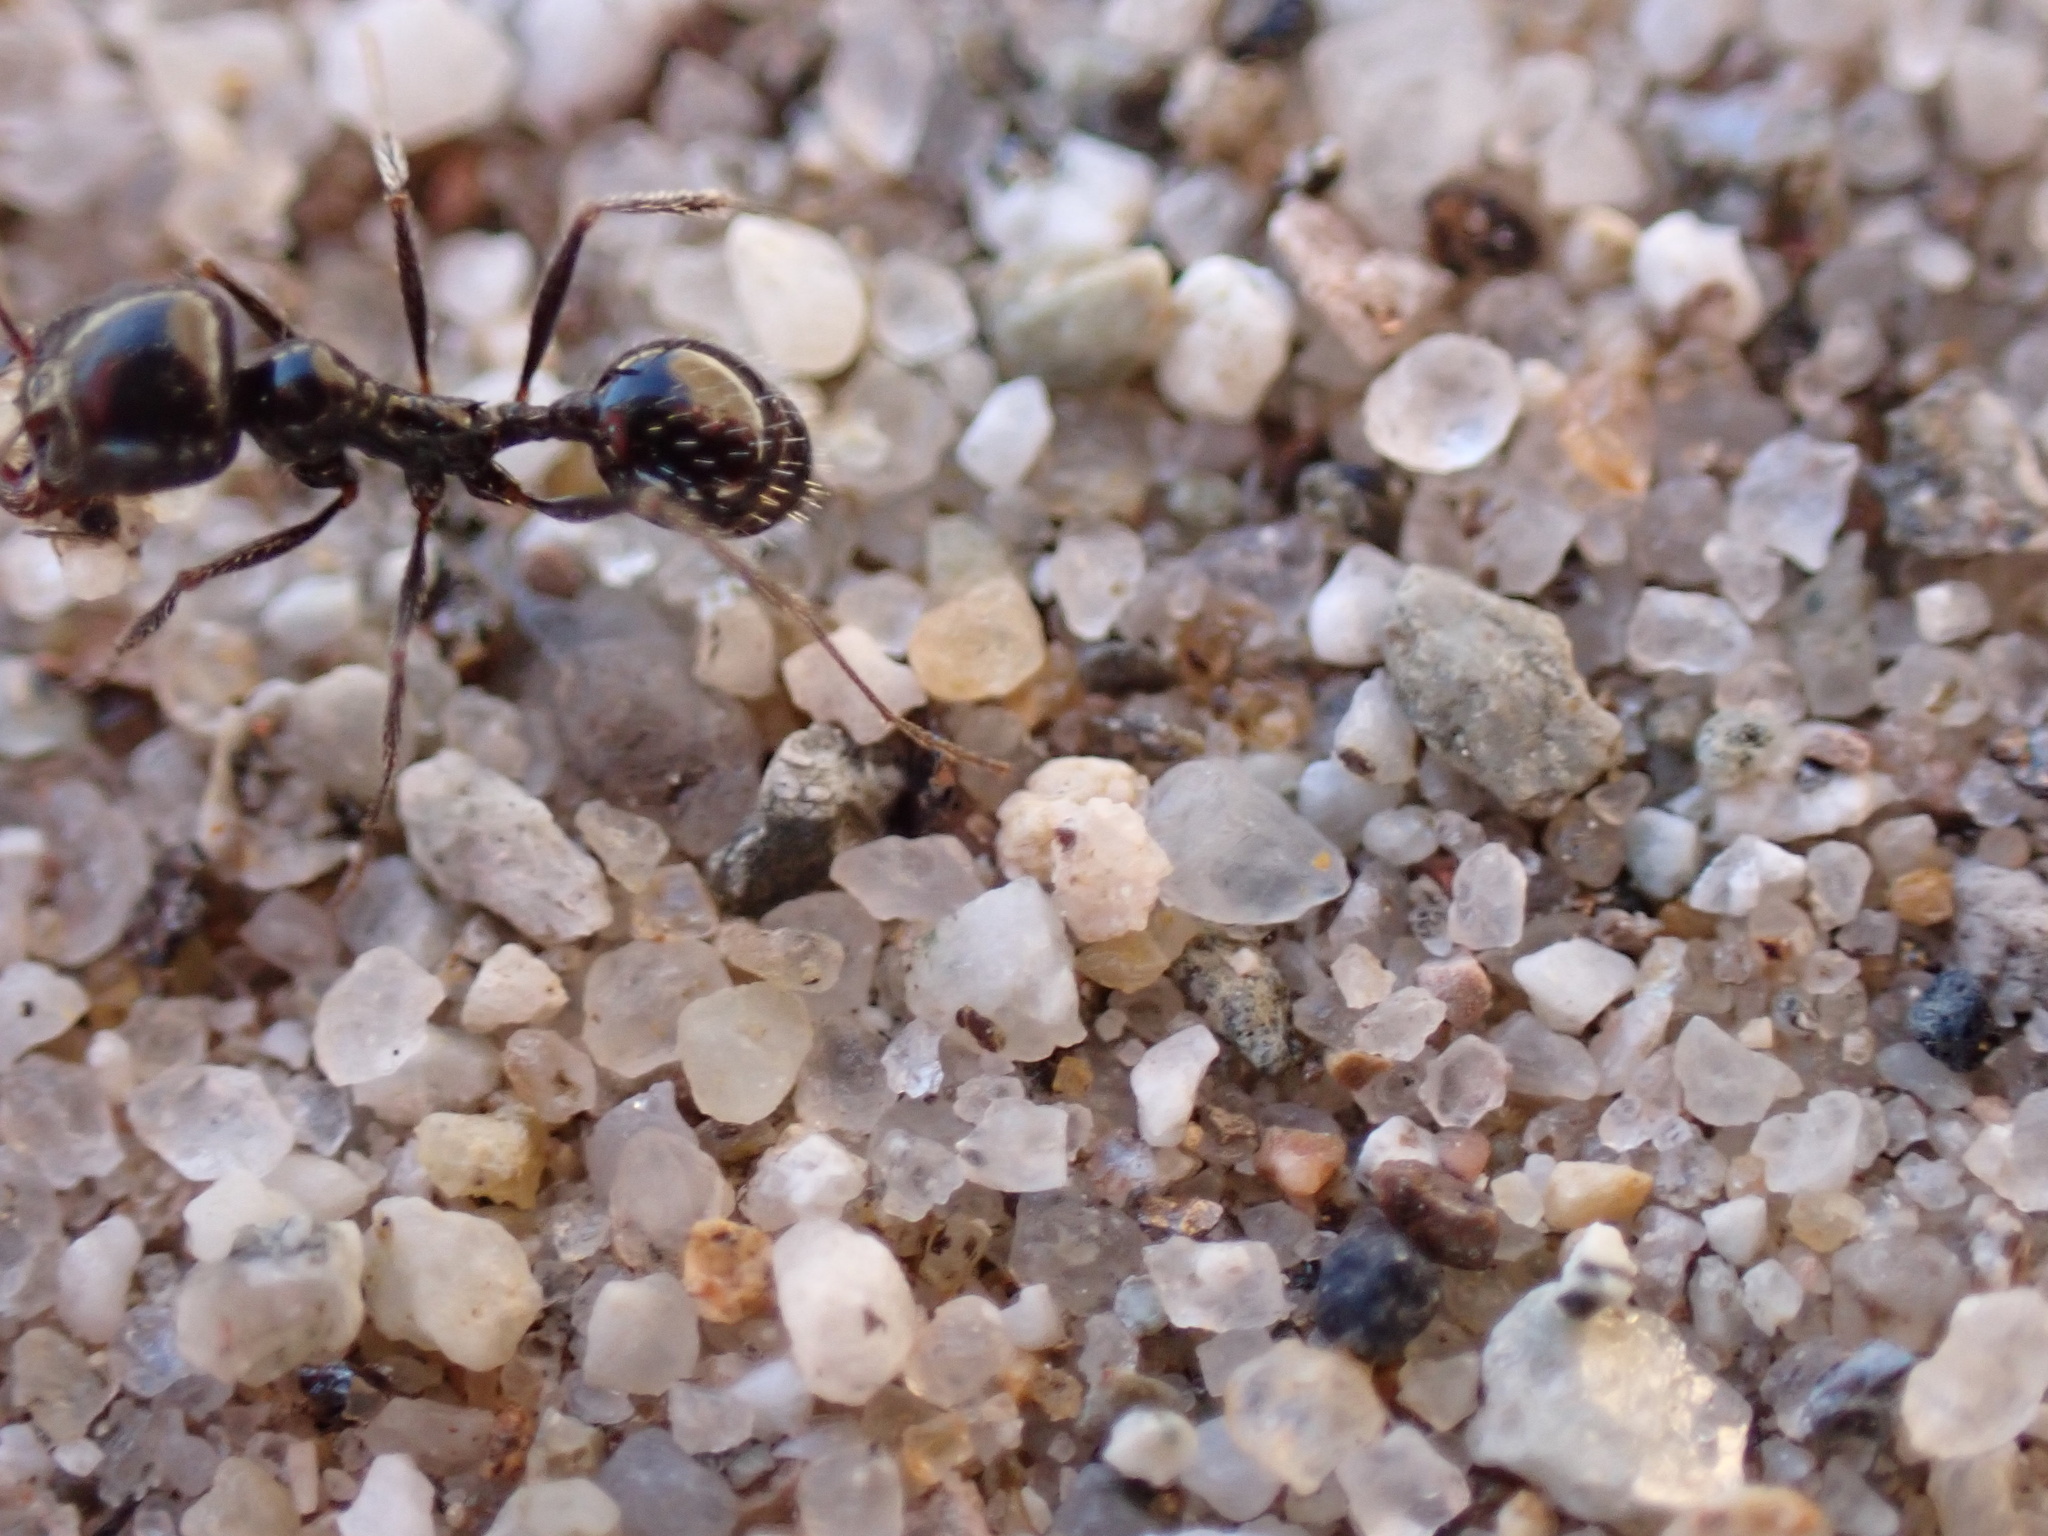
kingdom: Animalia
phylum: Arthropoda
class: Insecta
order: Hymenoptera
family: Formicidae
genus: Messor
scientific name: Messor pergandei
